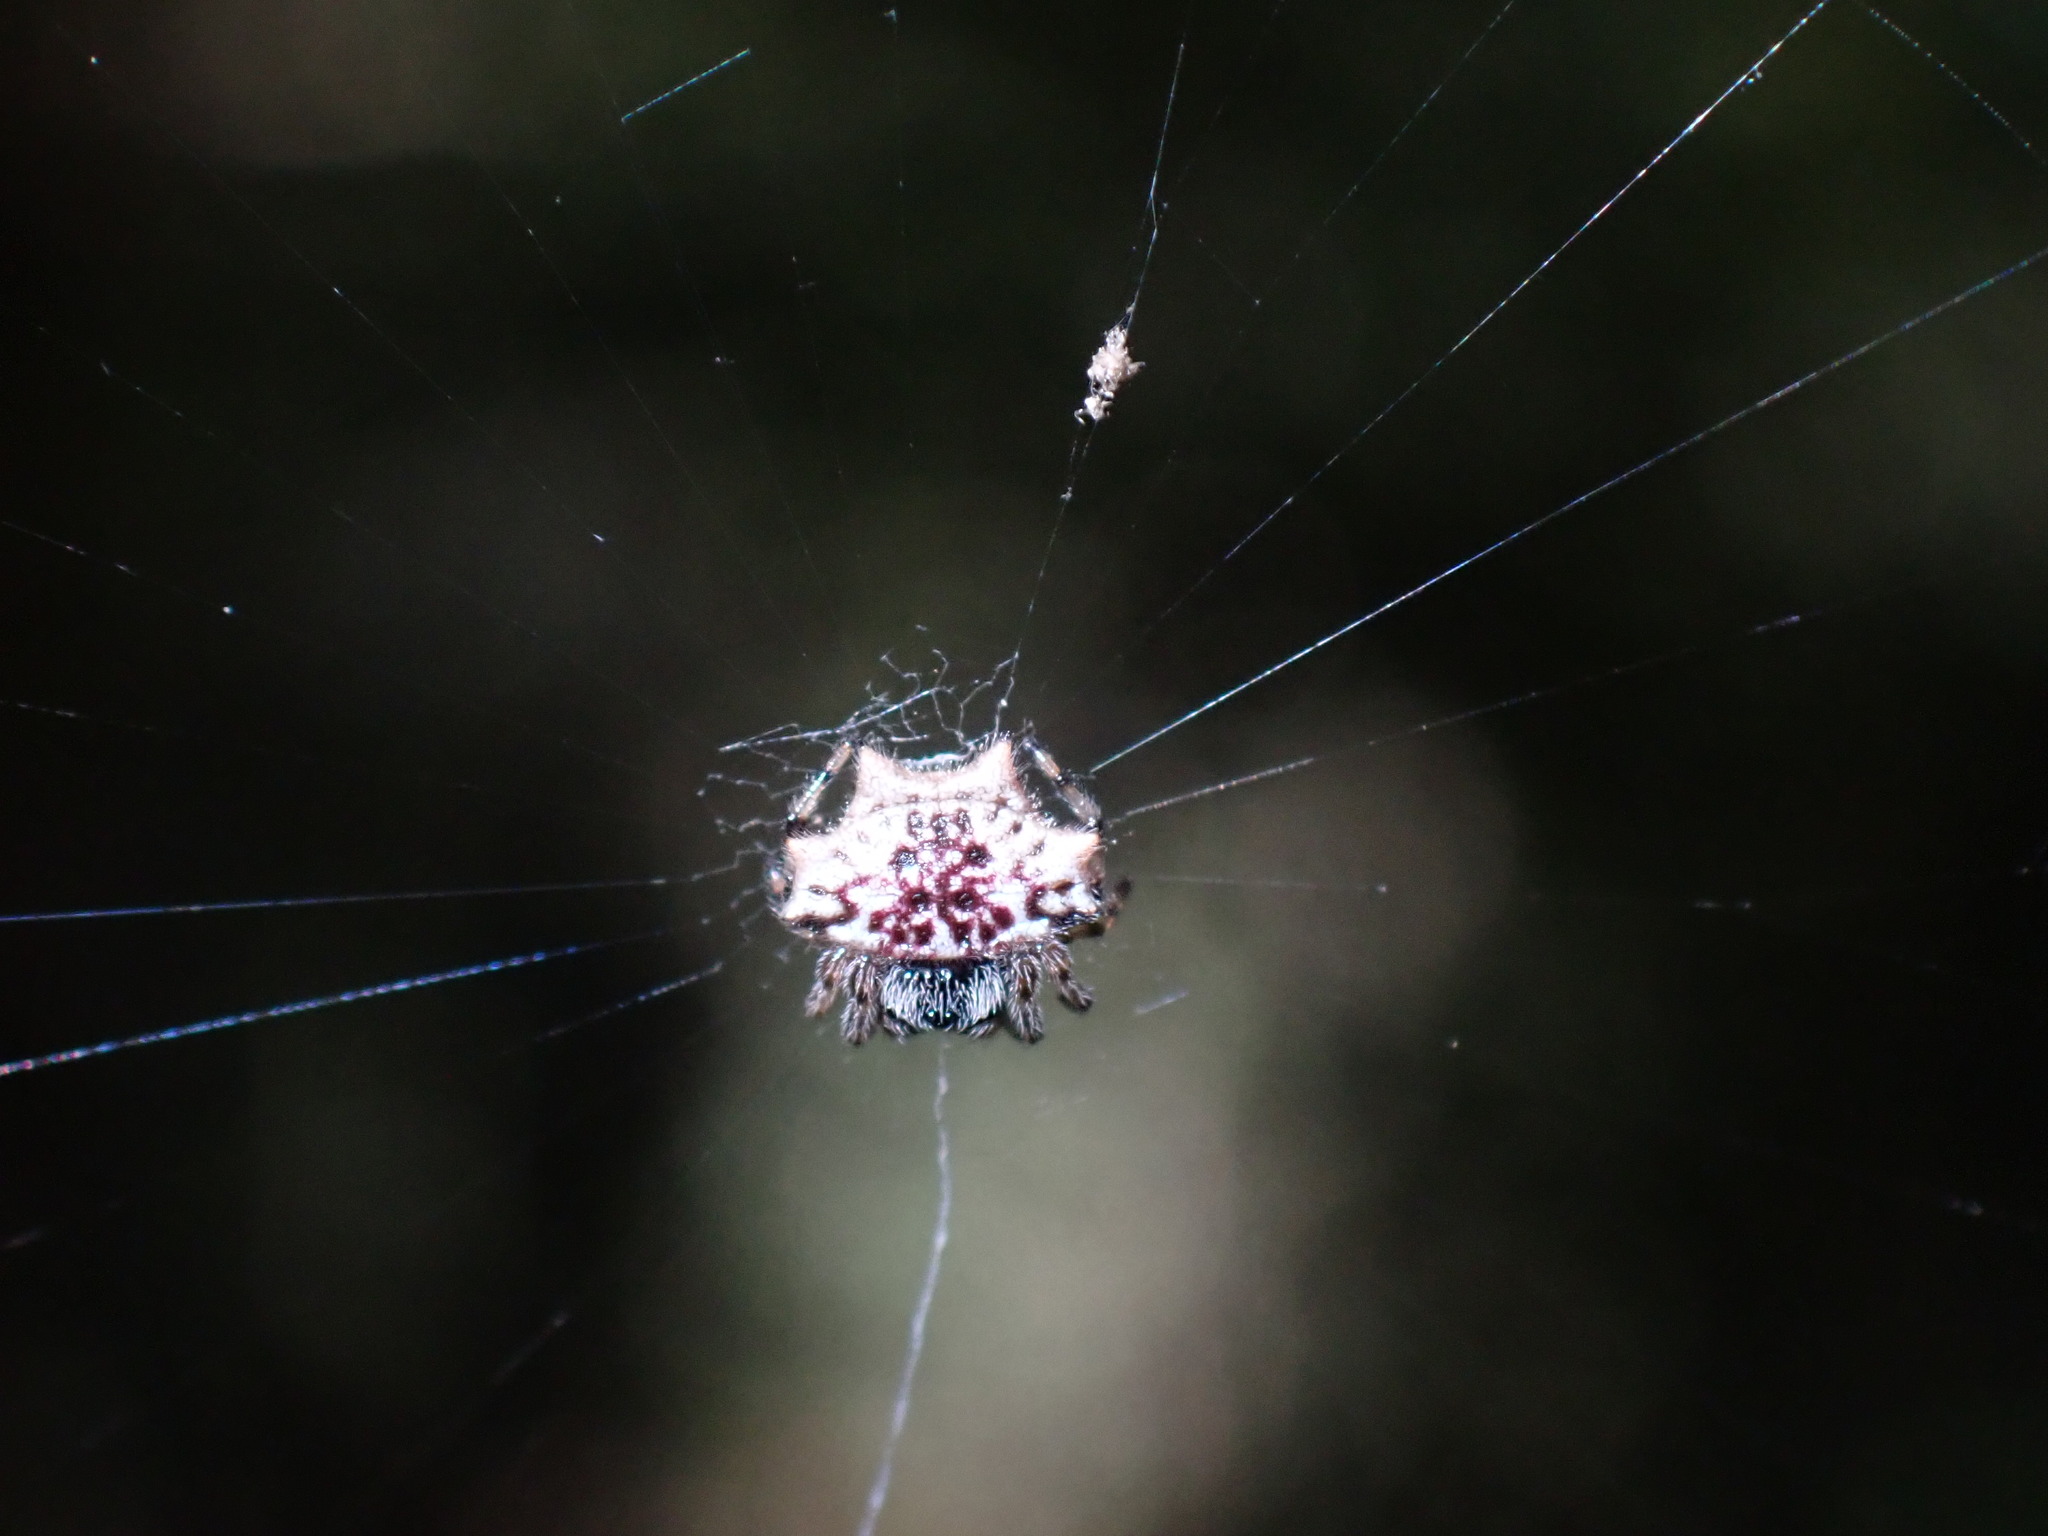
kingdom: Animalia
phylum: Arthropoda
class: Arachnida
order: Araneae
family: Araneidae
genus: Gasteracantha
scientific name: Gasteracantha kuhli
